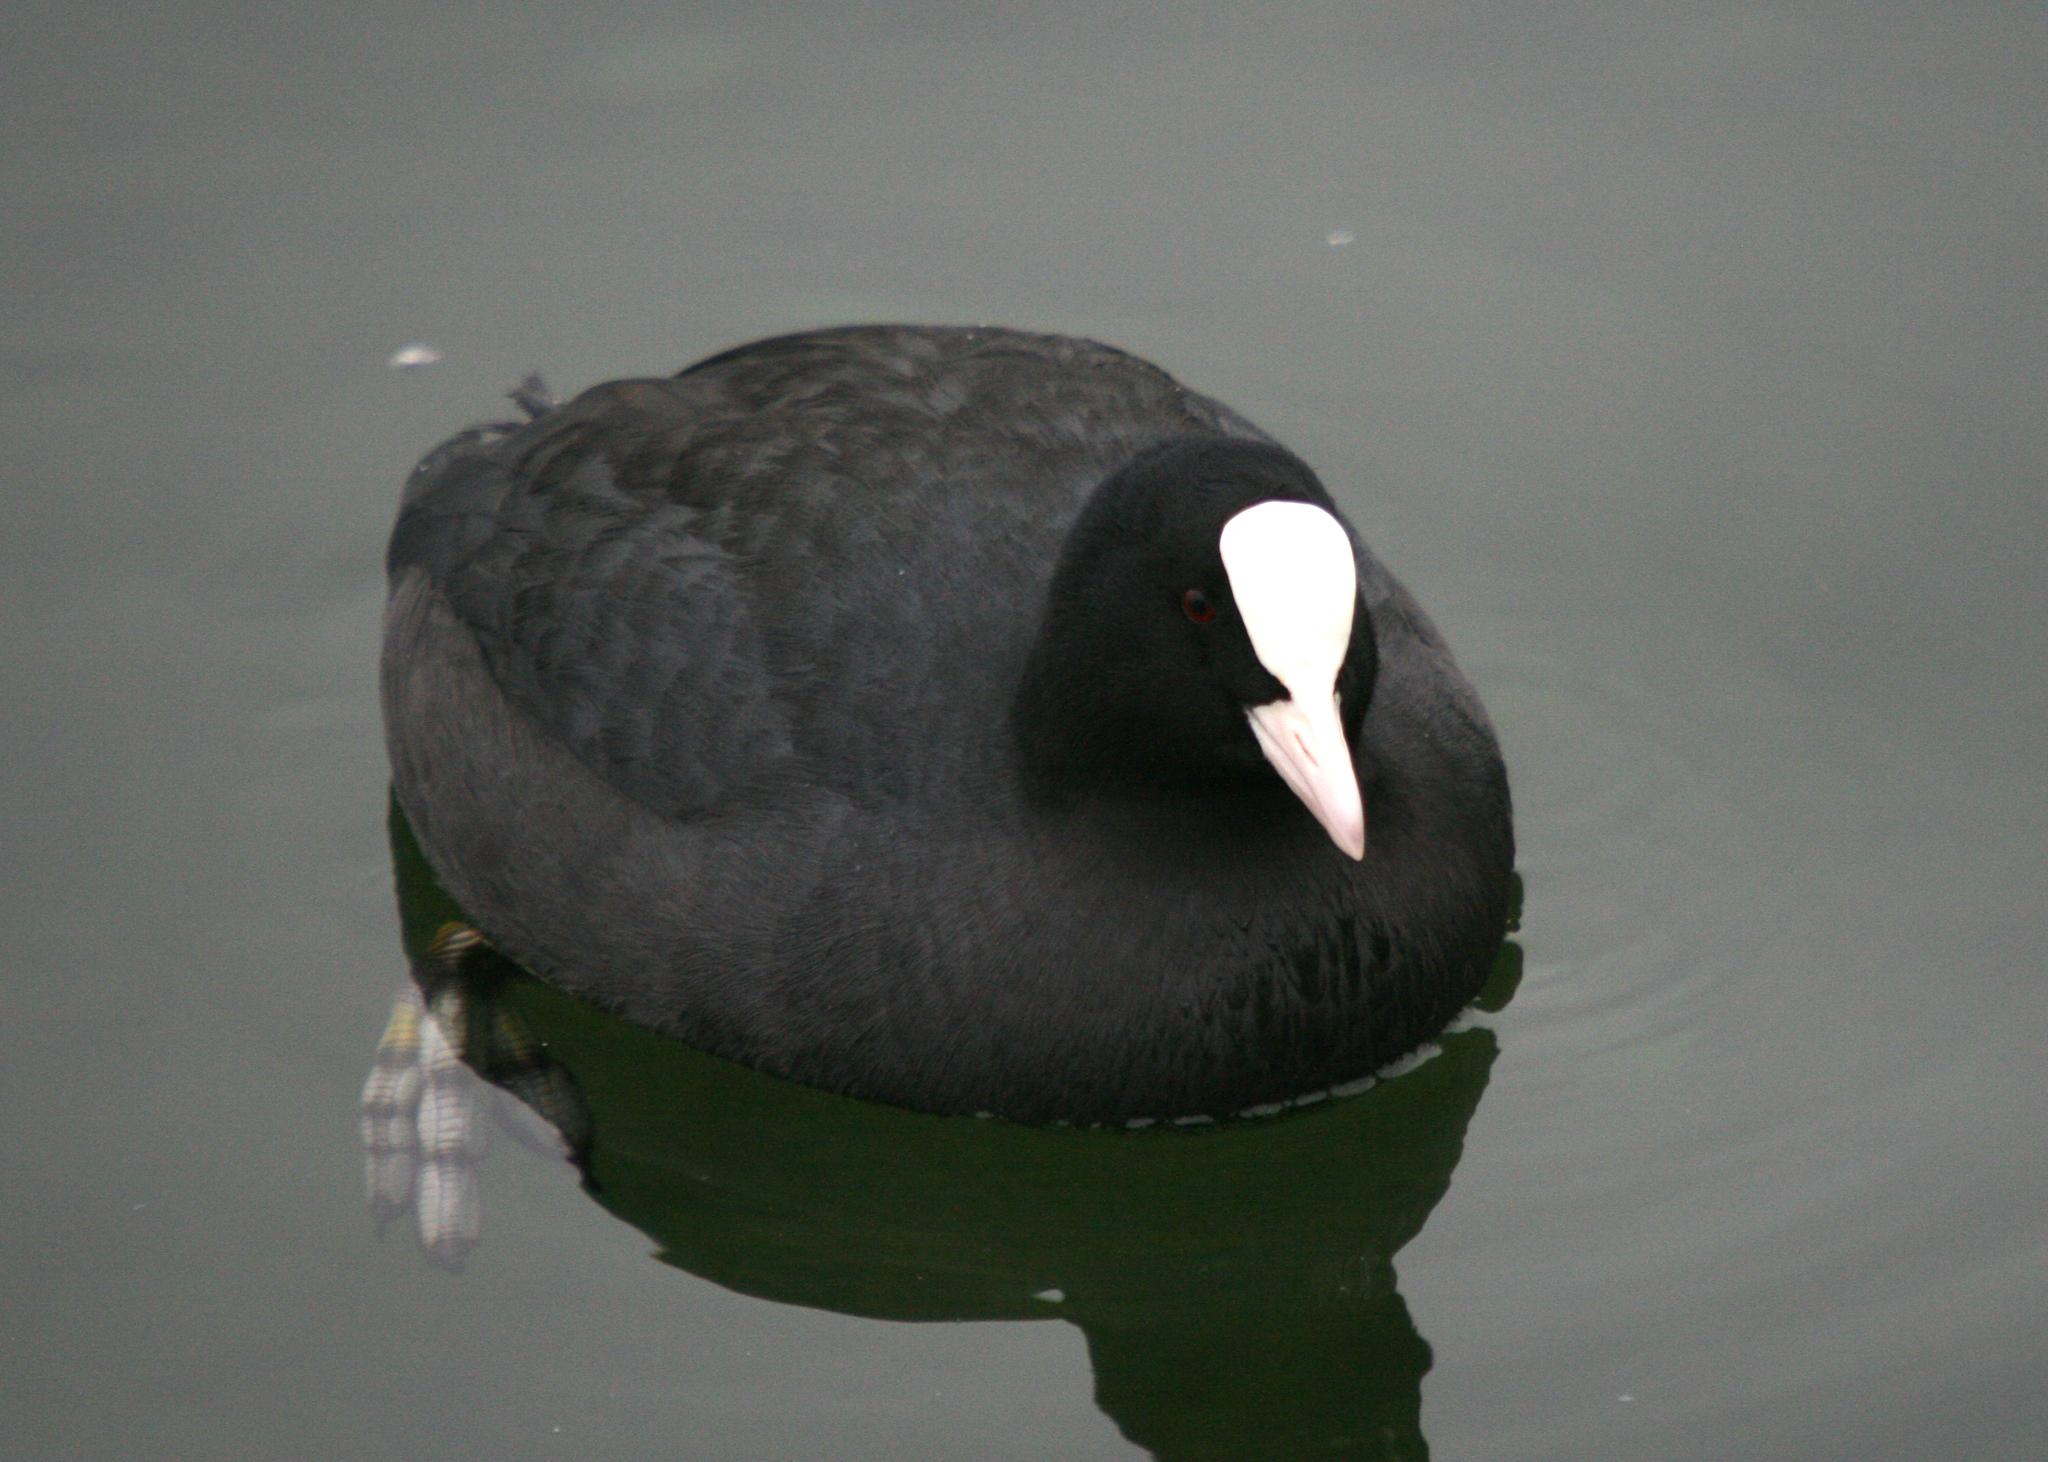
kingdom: Animalia
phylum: Chordata
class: Aves
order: Gruiformes
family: Rallidae
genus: Fulica
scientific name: Fulica atra
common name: Eurasian coot
